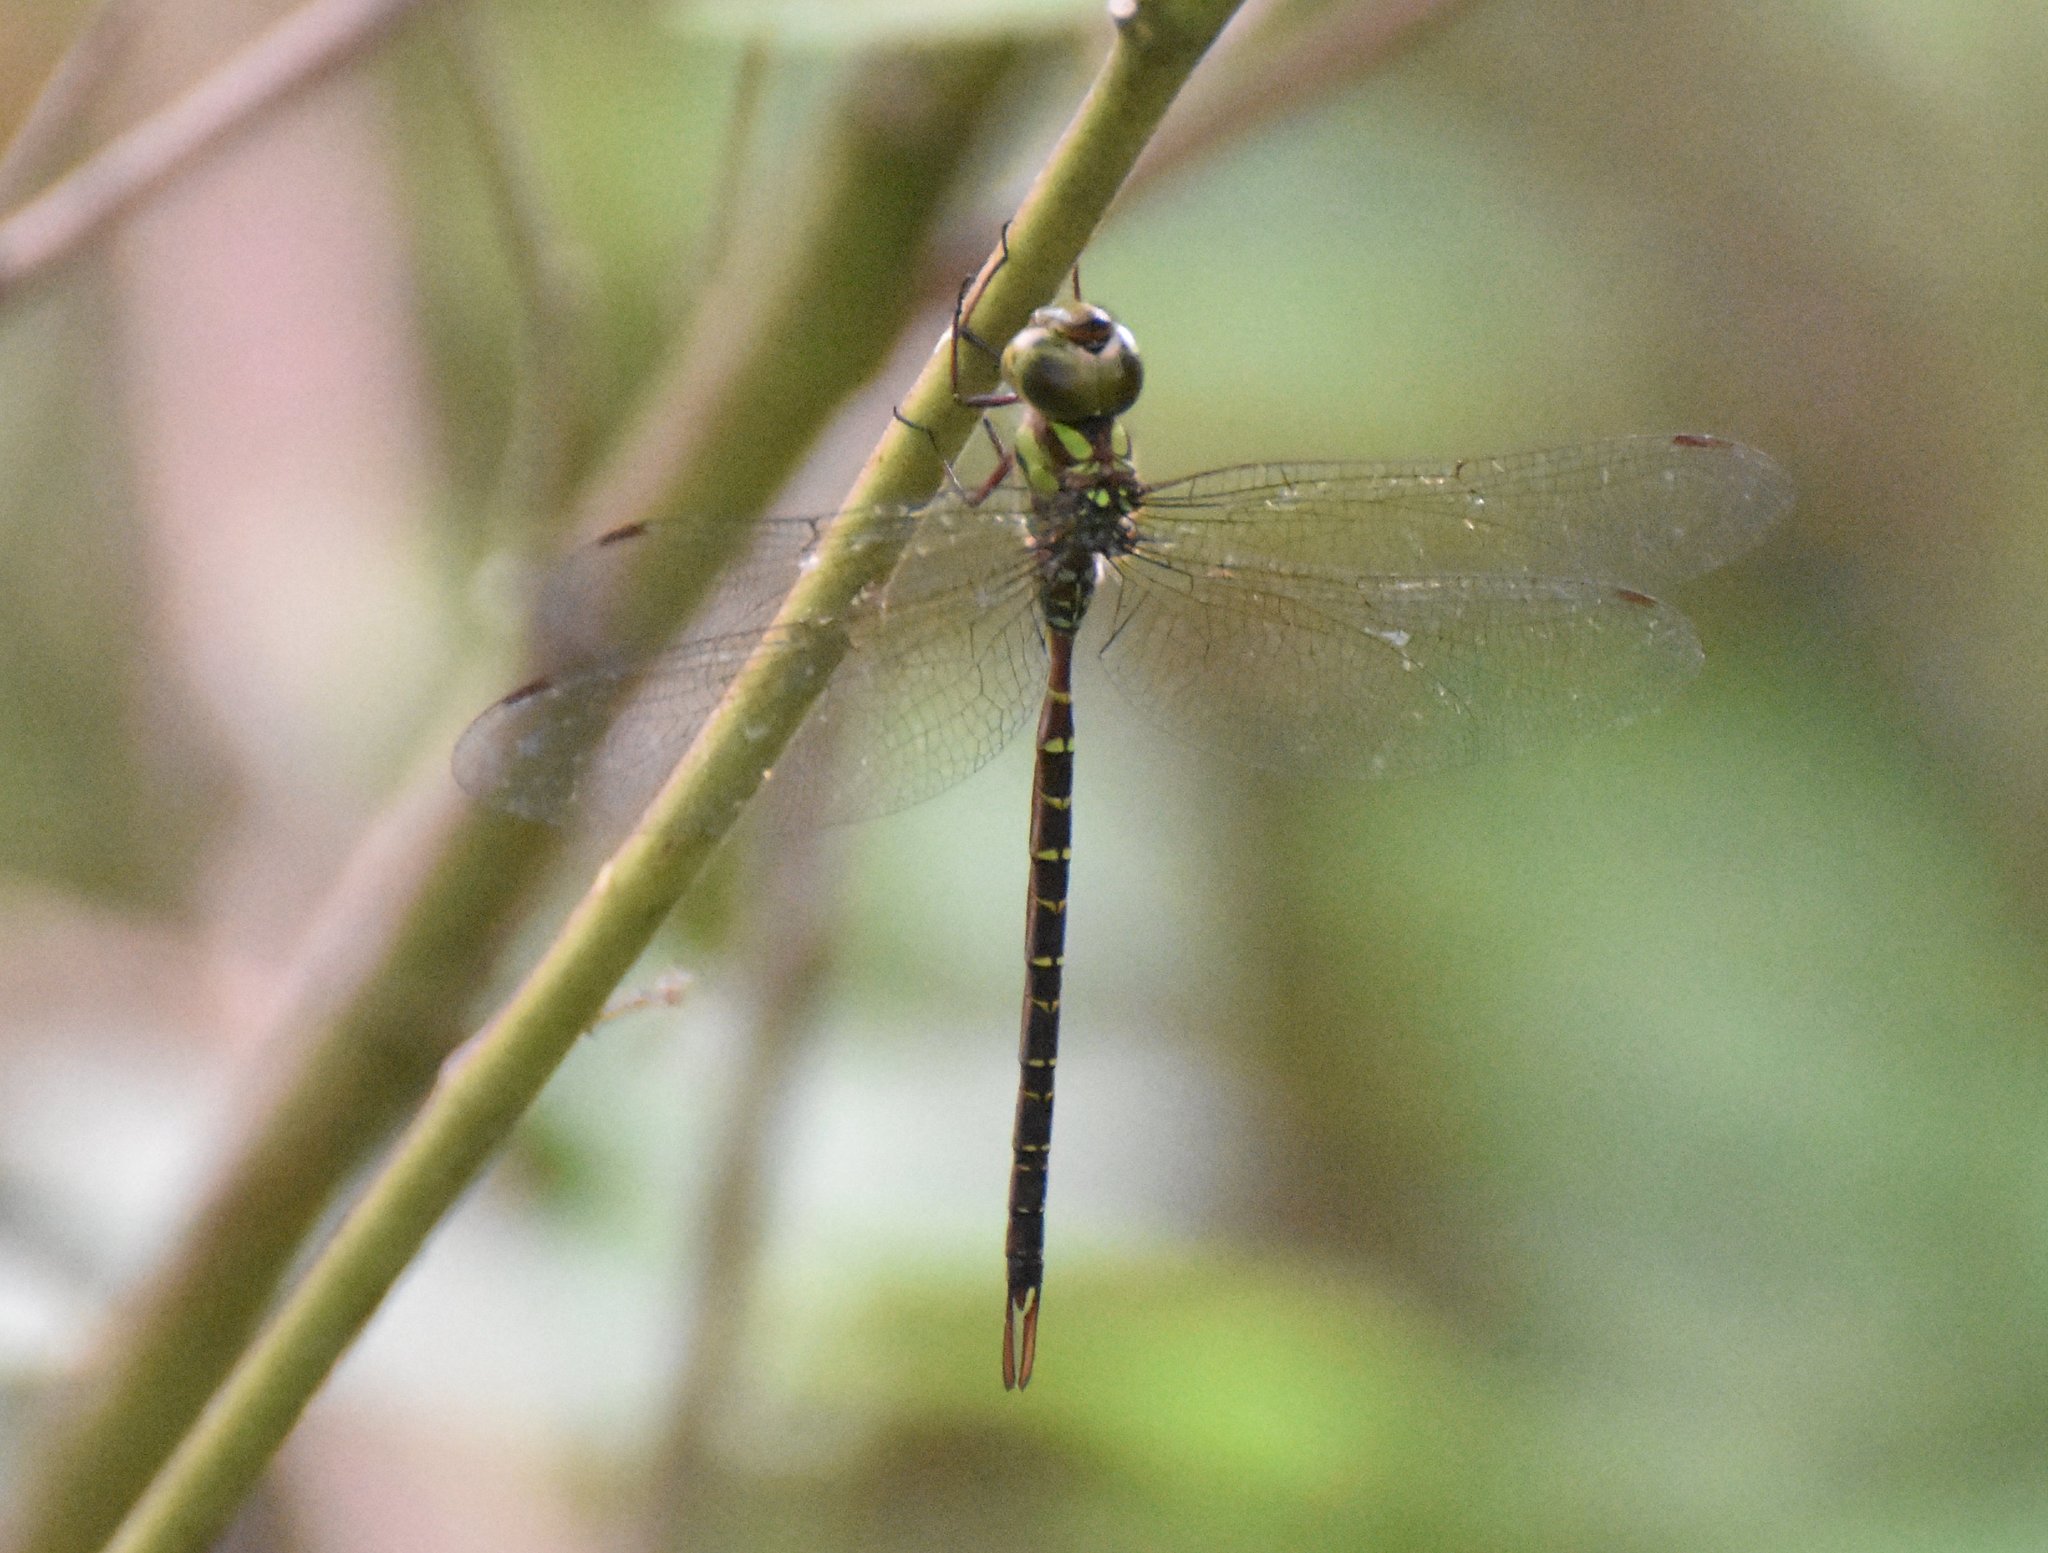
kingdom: Animalia
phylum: Arthropoda
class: Insecta
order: Odonata
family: Aeshnidae
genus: Triacanthagyna
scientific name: Triacanthagyna trifida
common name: Phantom darner
